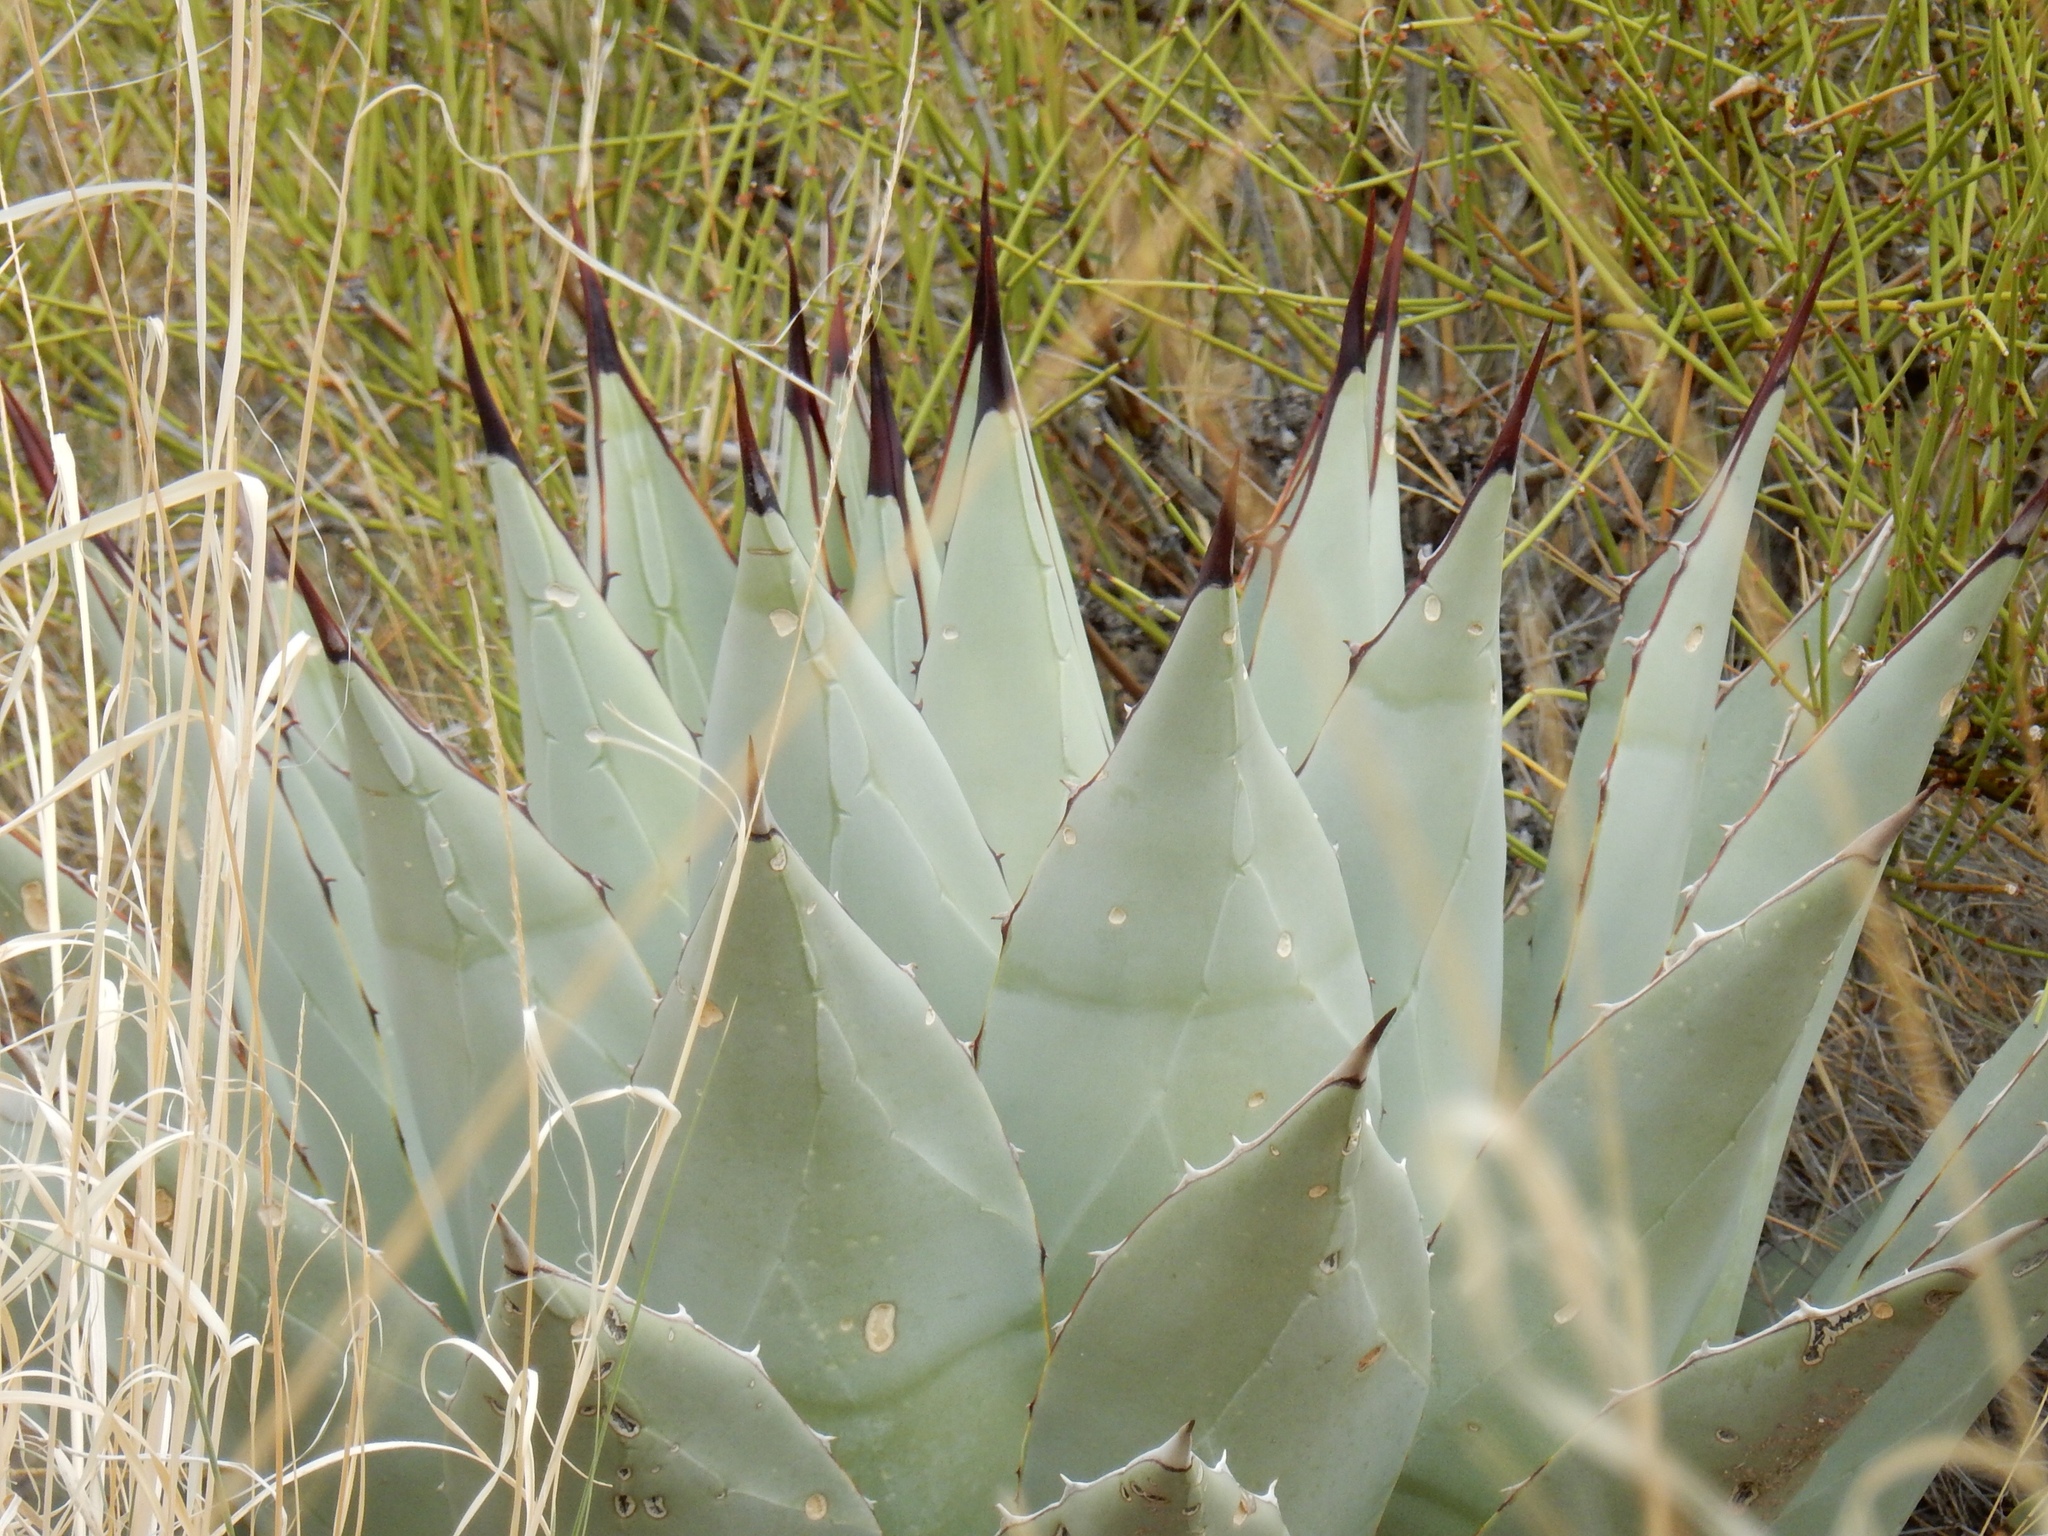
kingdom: Plantae
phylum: Tracheophyta
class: Liliopsida
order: Asparagales
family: Asparagaceae
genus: Agave
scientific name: Agave parryi
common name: Parry's agave
